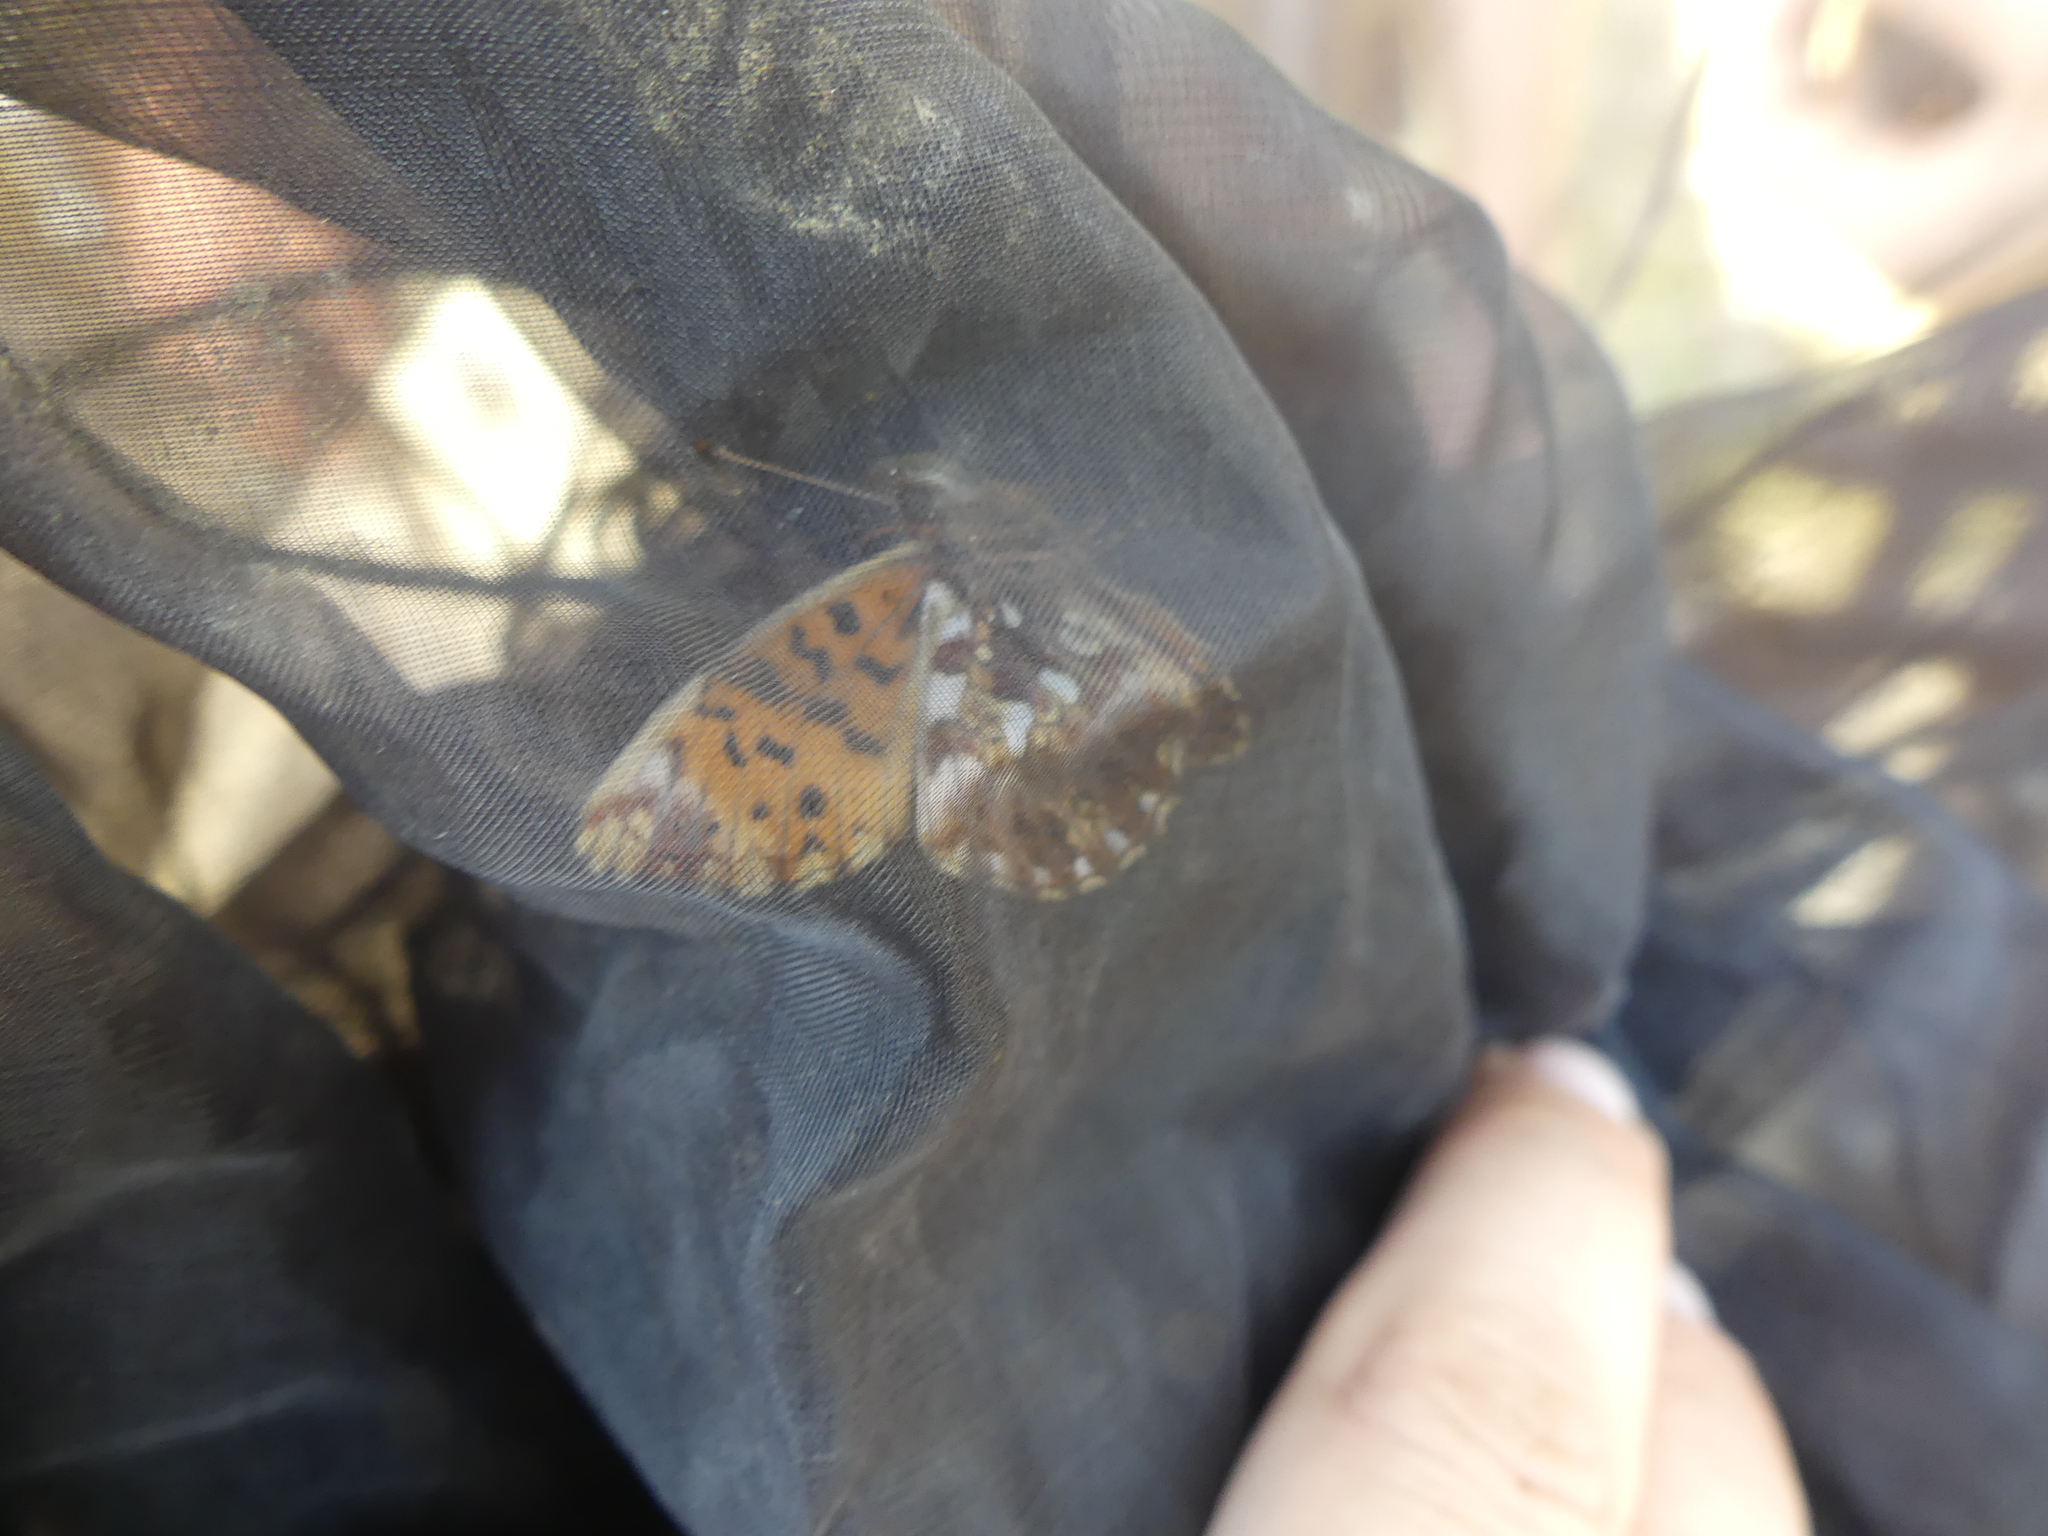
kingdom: Animalia
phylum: Arthropoda
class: Insecta
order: Lepidoptera
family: Nymphalidae
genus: Boloria
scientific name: Boloria dia
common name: Weaver's fritillary
